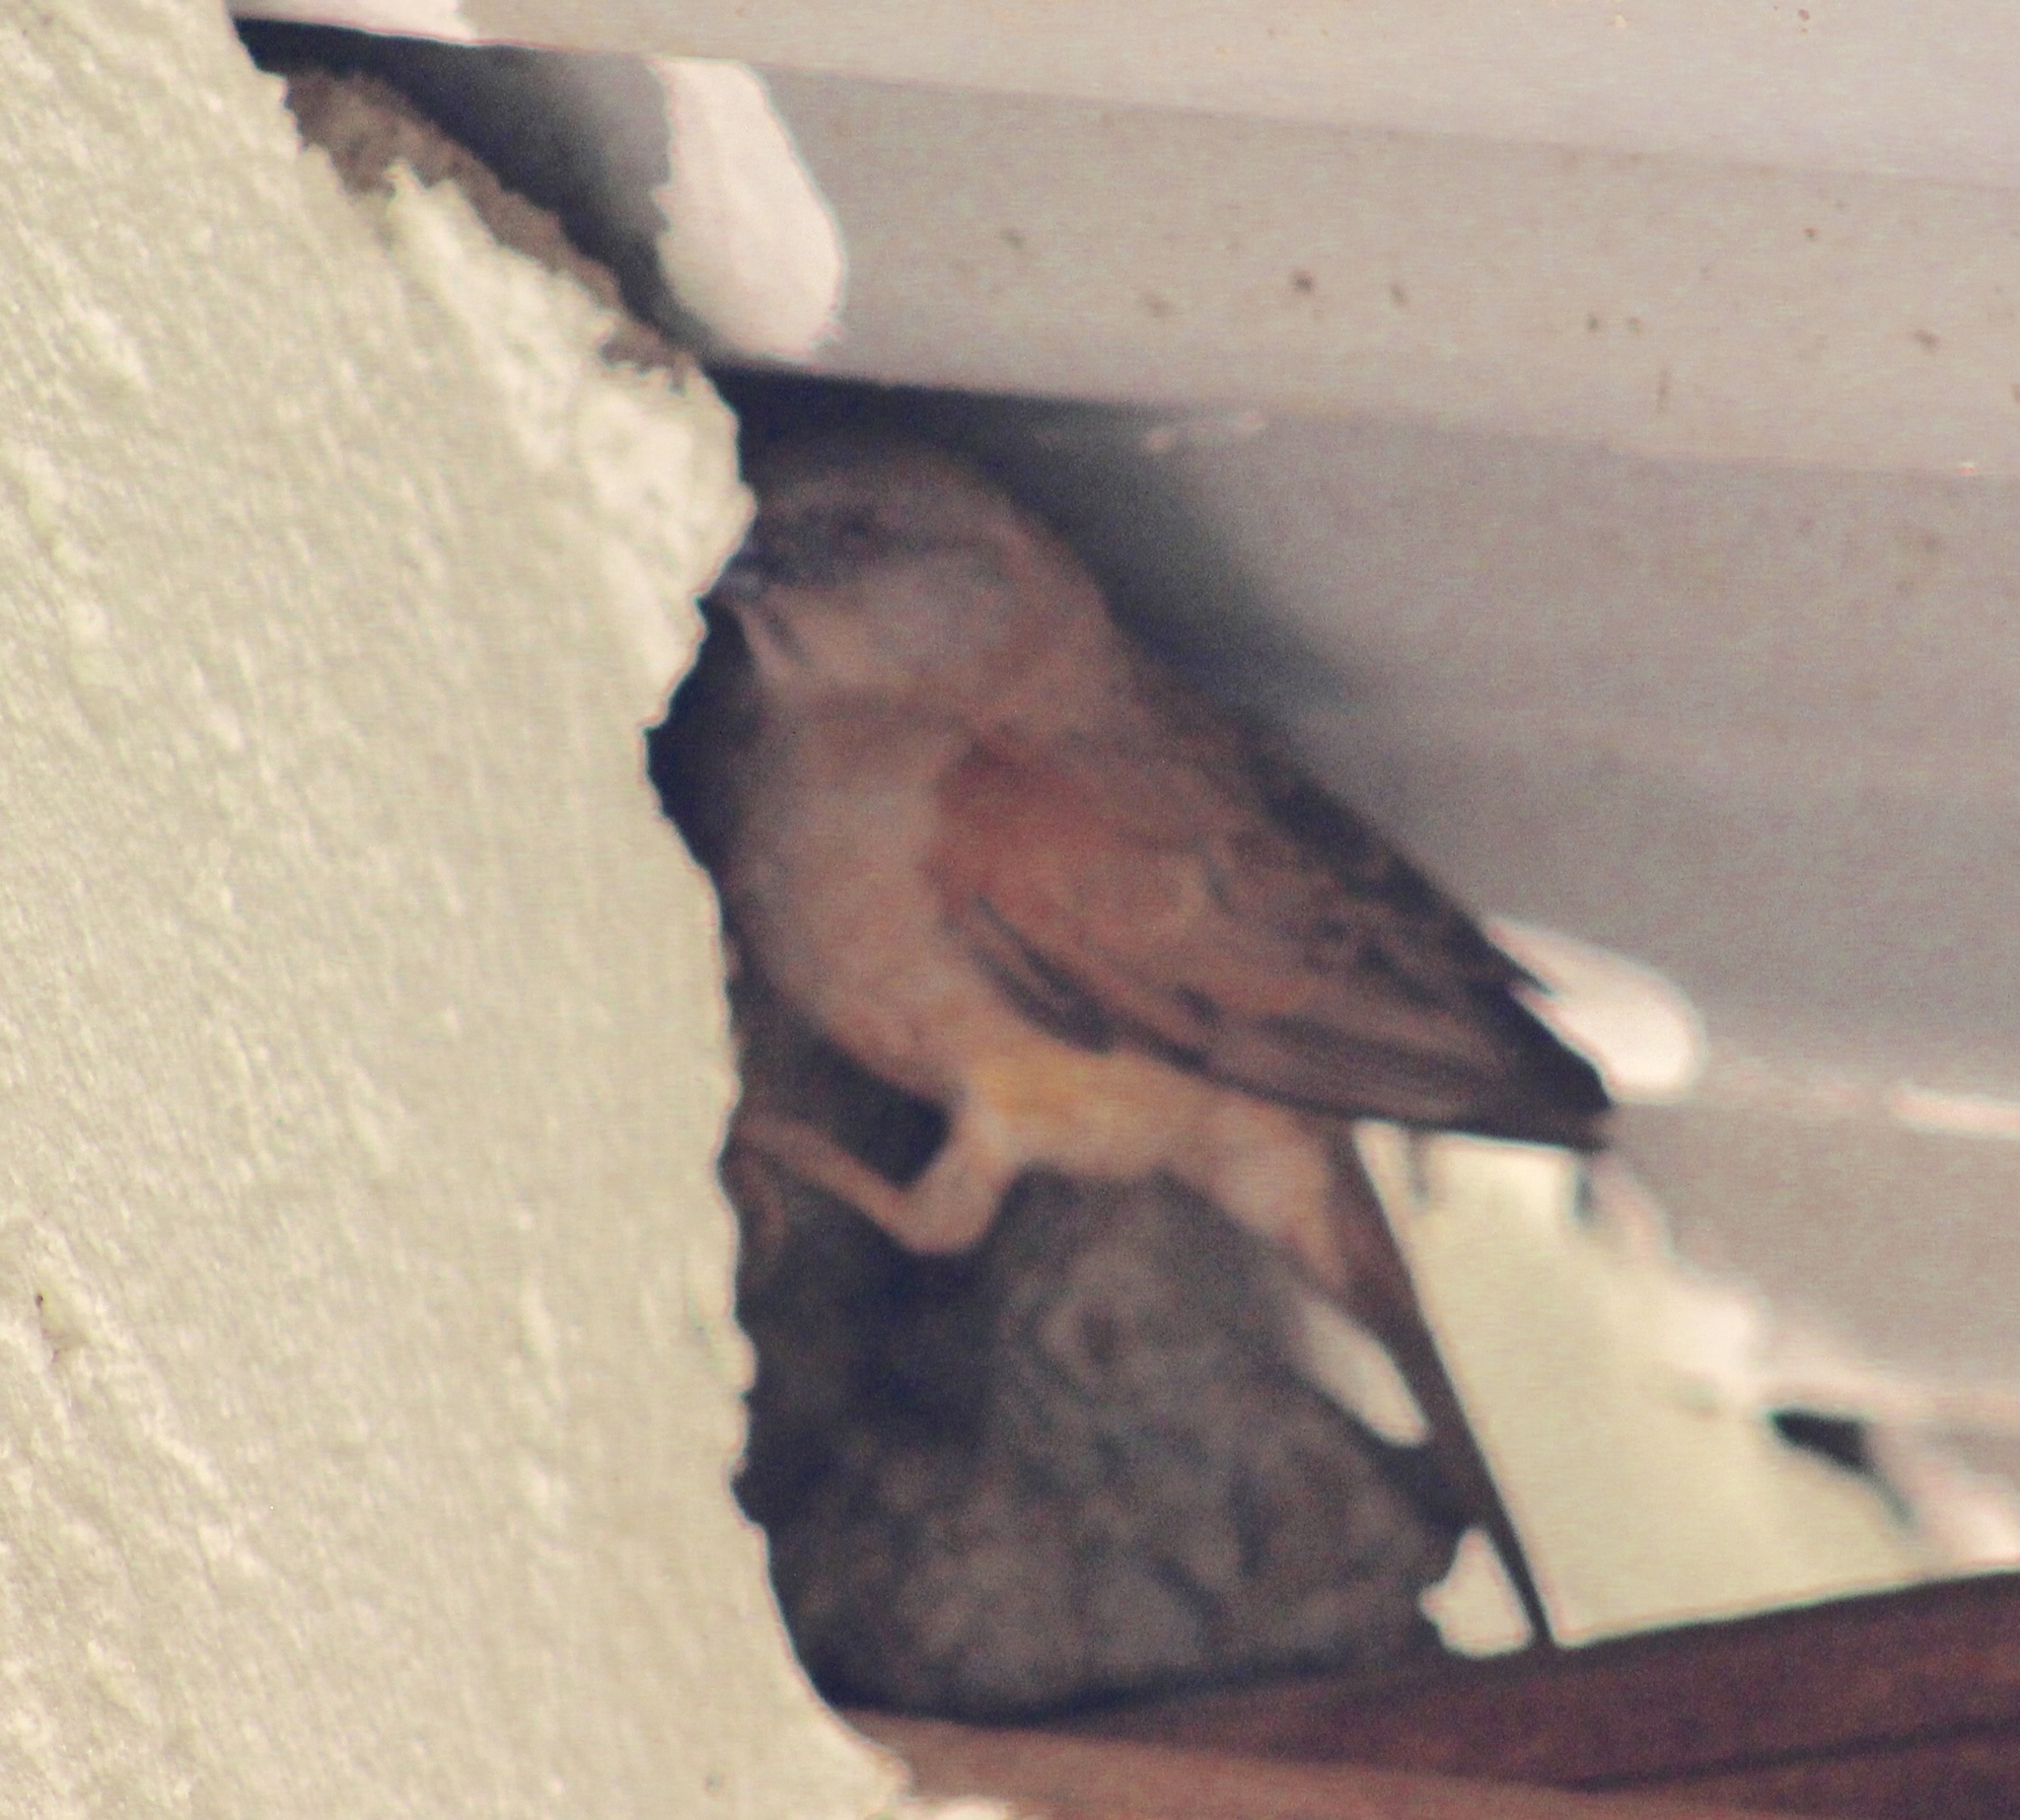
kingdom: Animalia
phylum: Chordata
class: Aves
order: Passeriformes
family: Passeridae
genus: Passer
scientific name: Passer griseus
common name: Northern grey-headed sparrow
